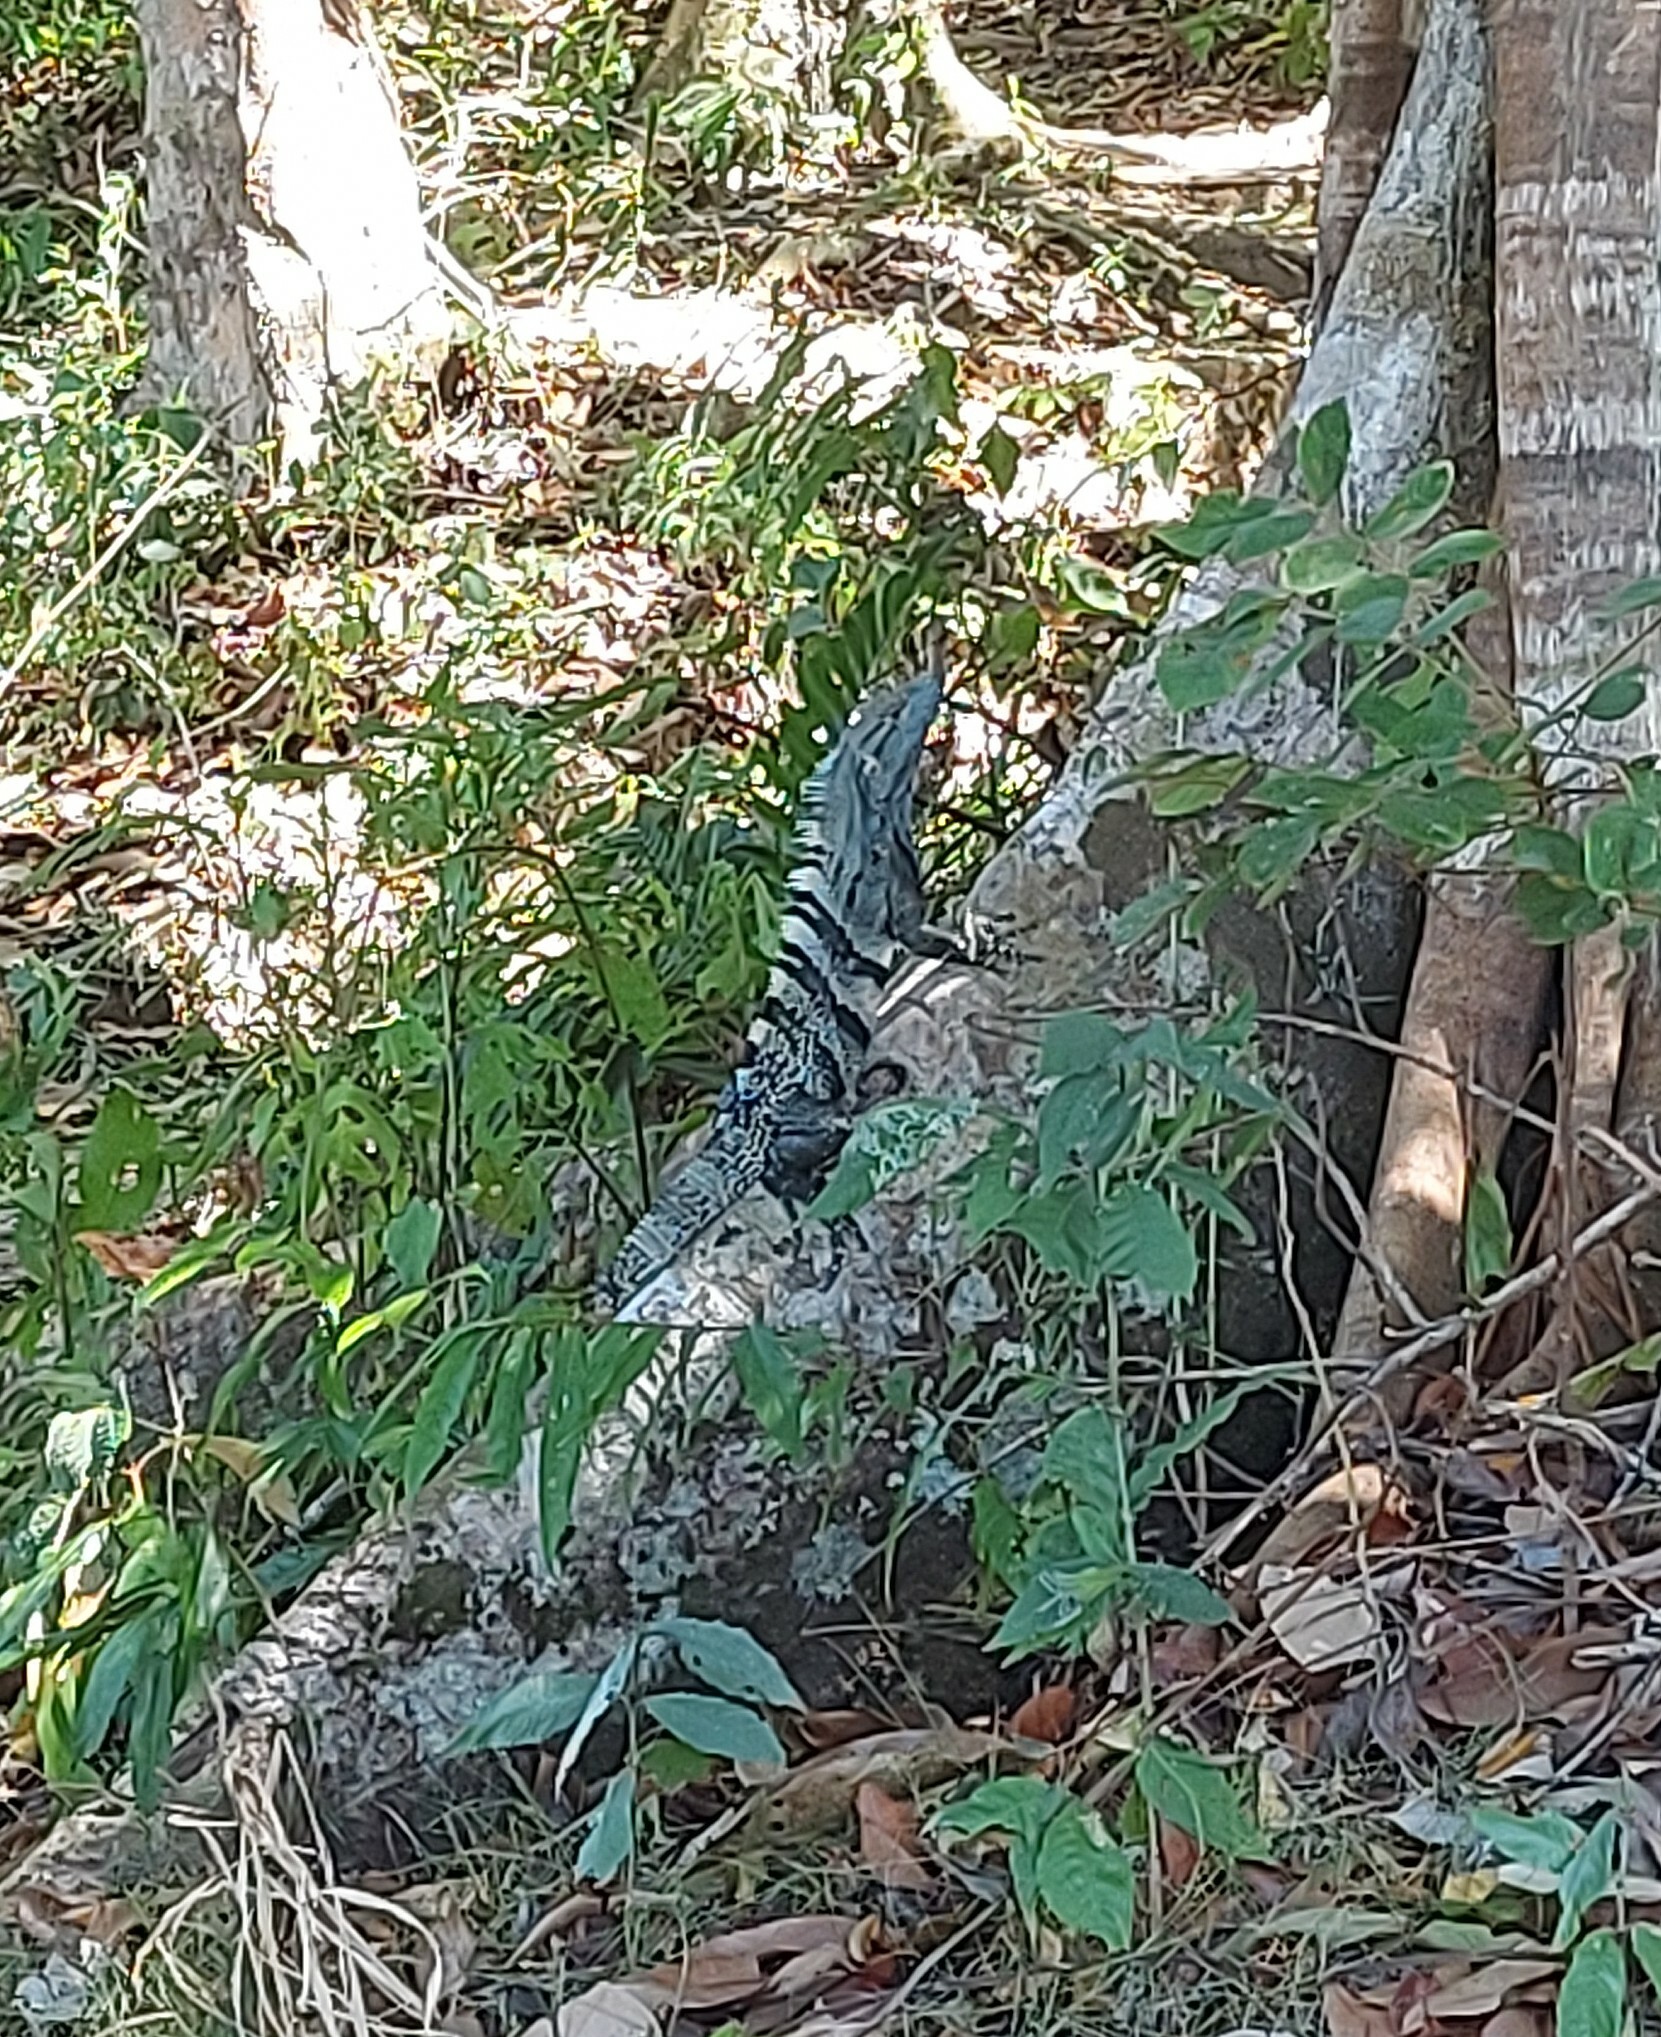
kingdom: Animalia
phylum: Chordata
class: Squamata
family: Iguanidae
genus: Ctenosaura
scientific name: Ctenosaura similis
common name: Black spiny-tailed iguana
